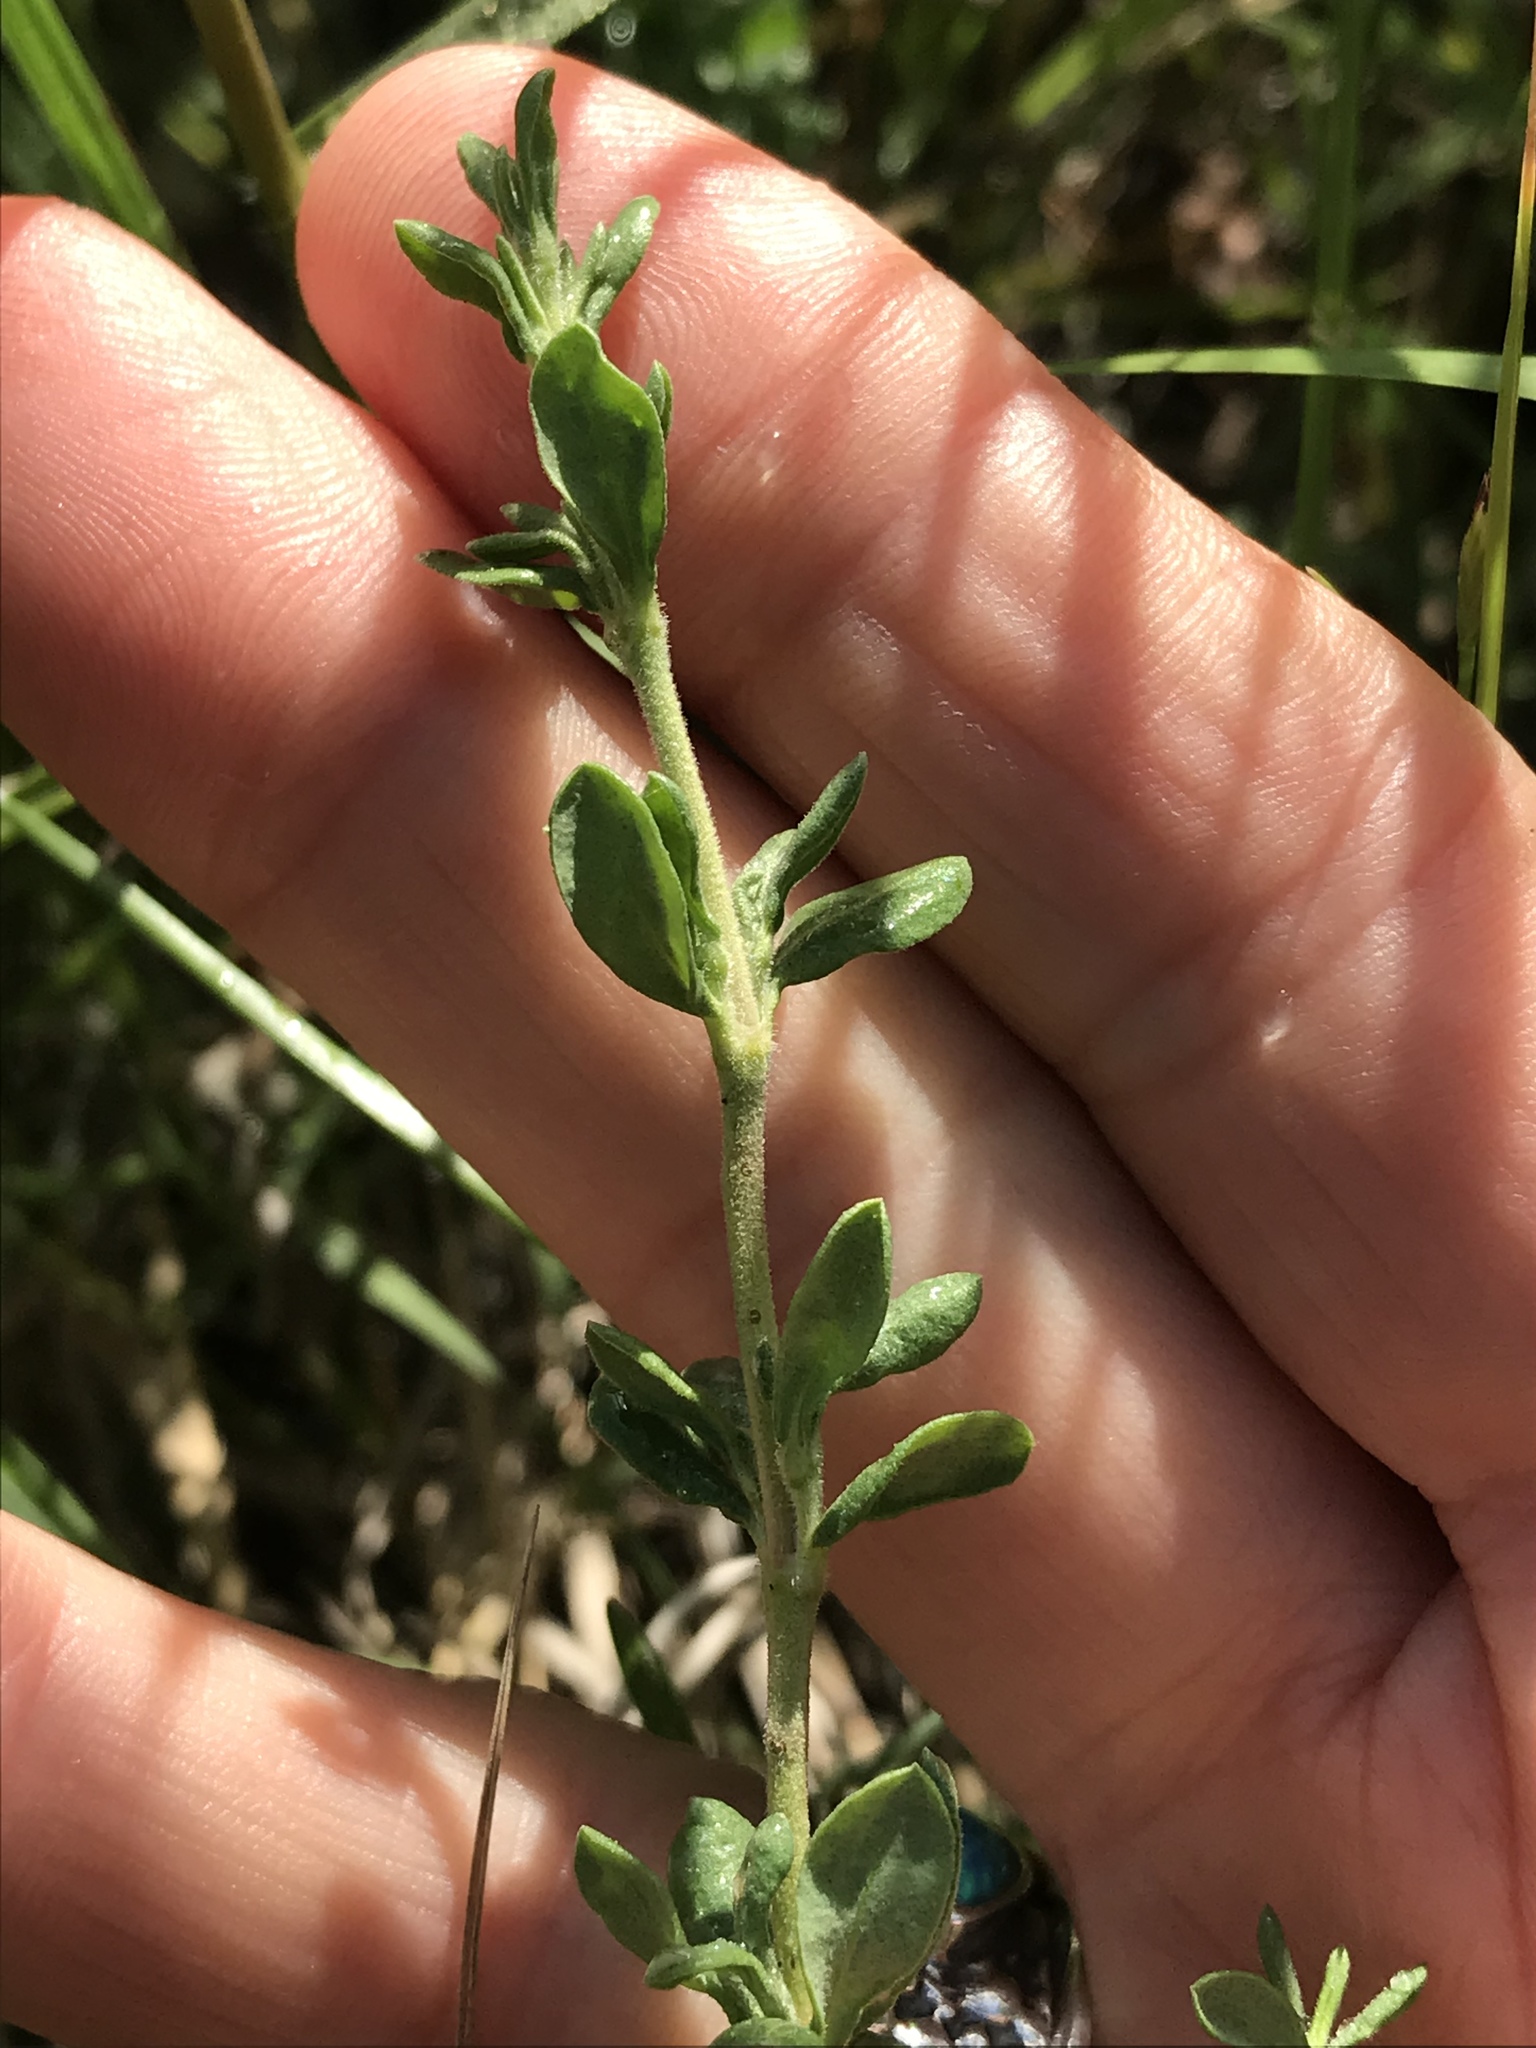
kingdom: Plantae
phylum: Tracheophyta
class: Magnoliopsida
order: Caryophyllales
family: Frankeniaceae
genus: Frankenia
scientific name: Frankenia salina
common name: Alkali seaheath
